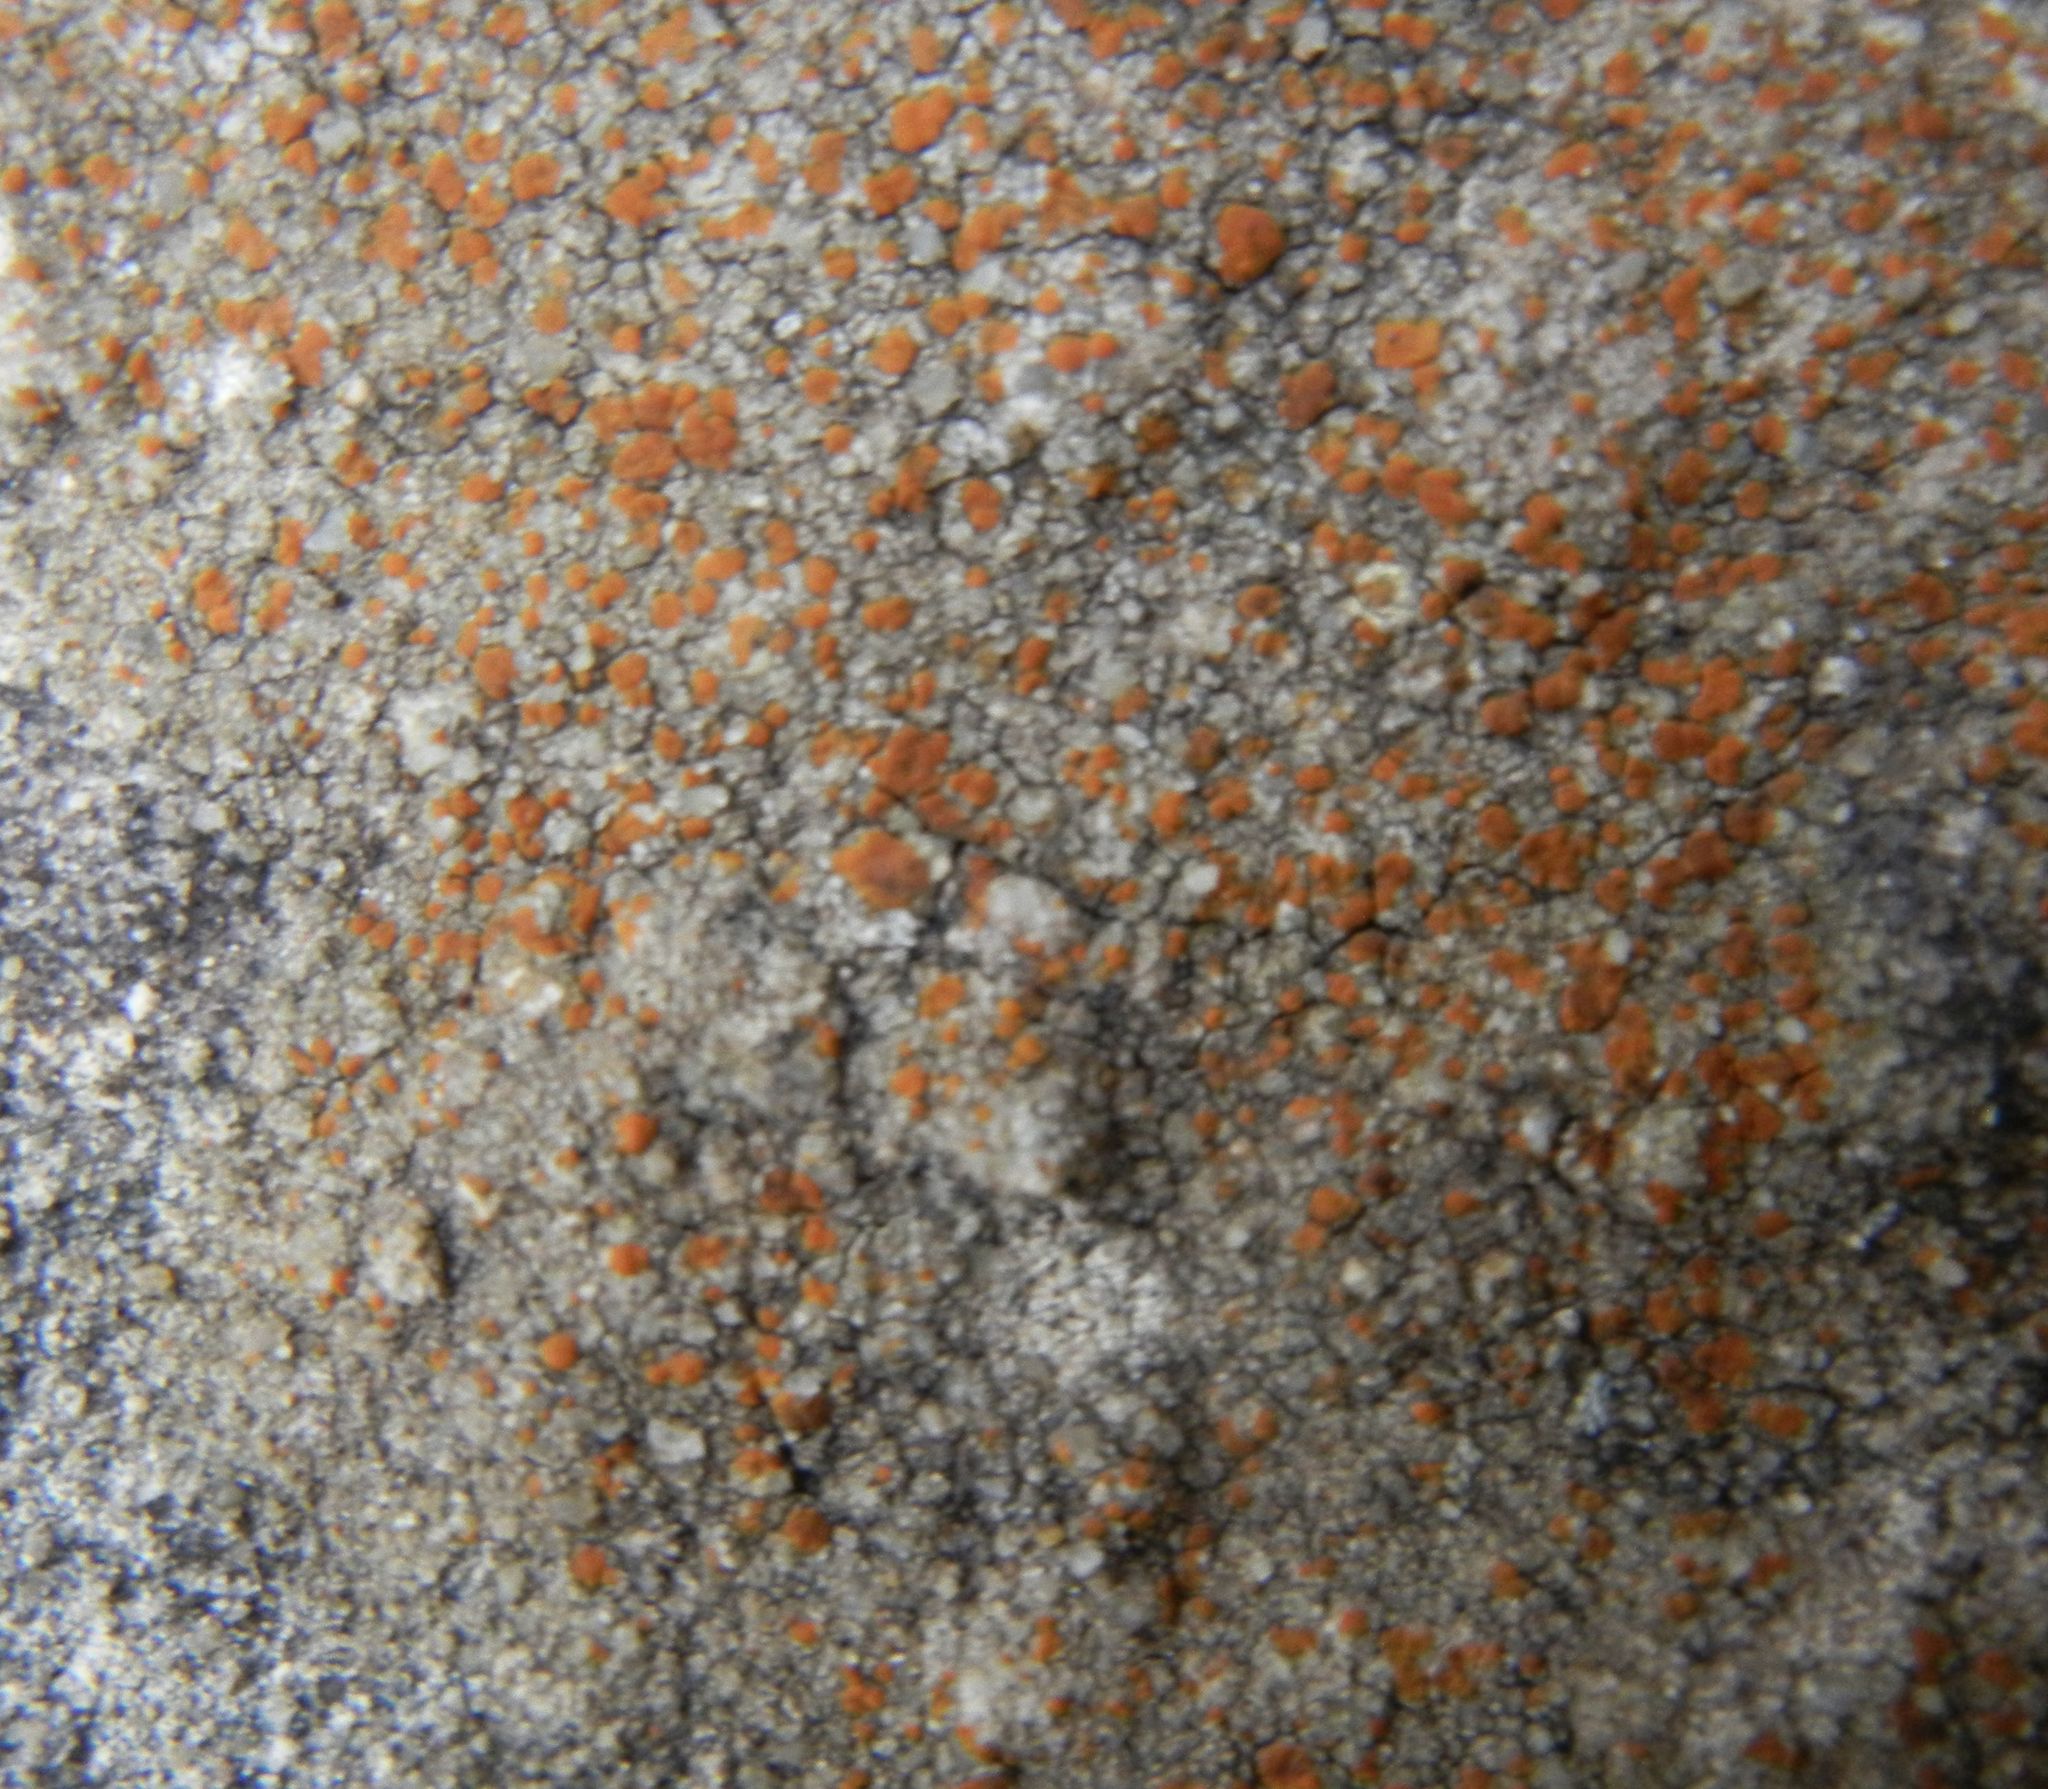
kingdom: Fungi
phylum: Ascomycota
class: Lecanoromycetes
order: Lecanorales
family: Psoraceae
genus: Protoblastenia
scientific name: Protoblastenia rupestris
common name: Chewing gum lichen
